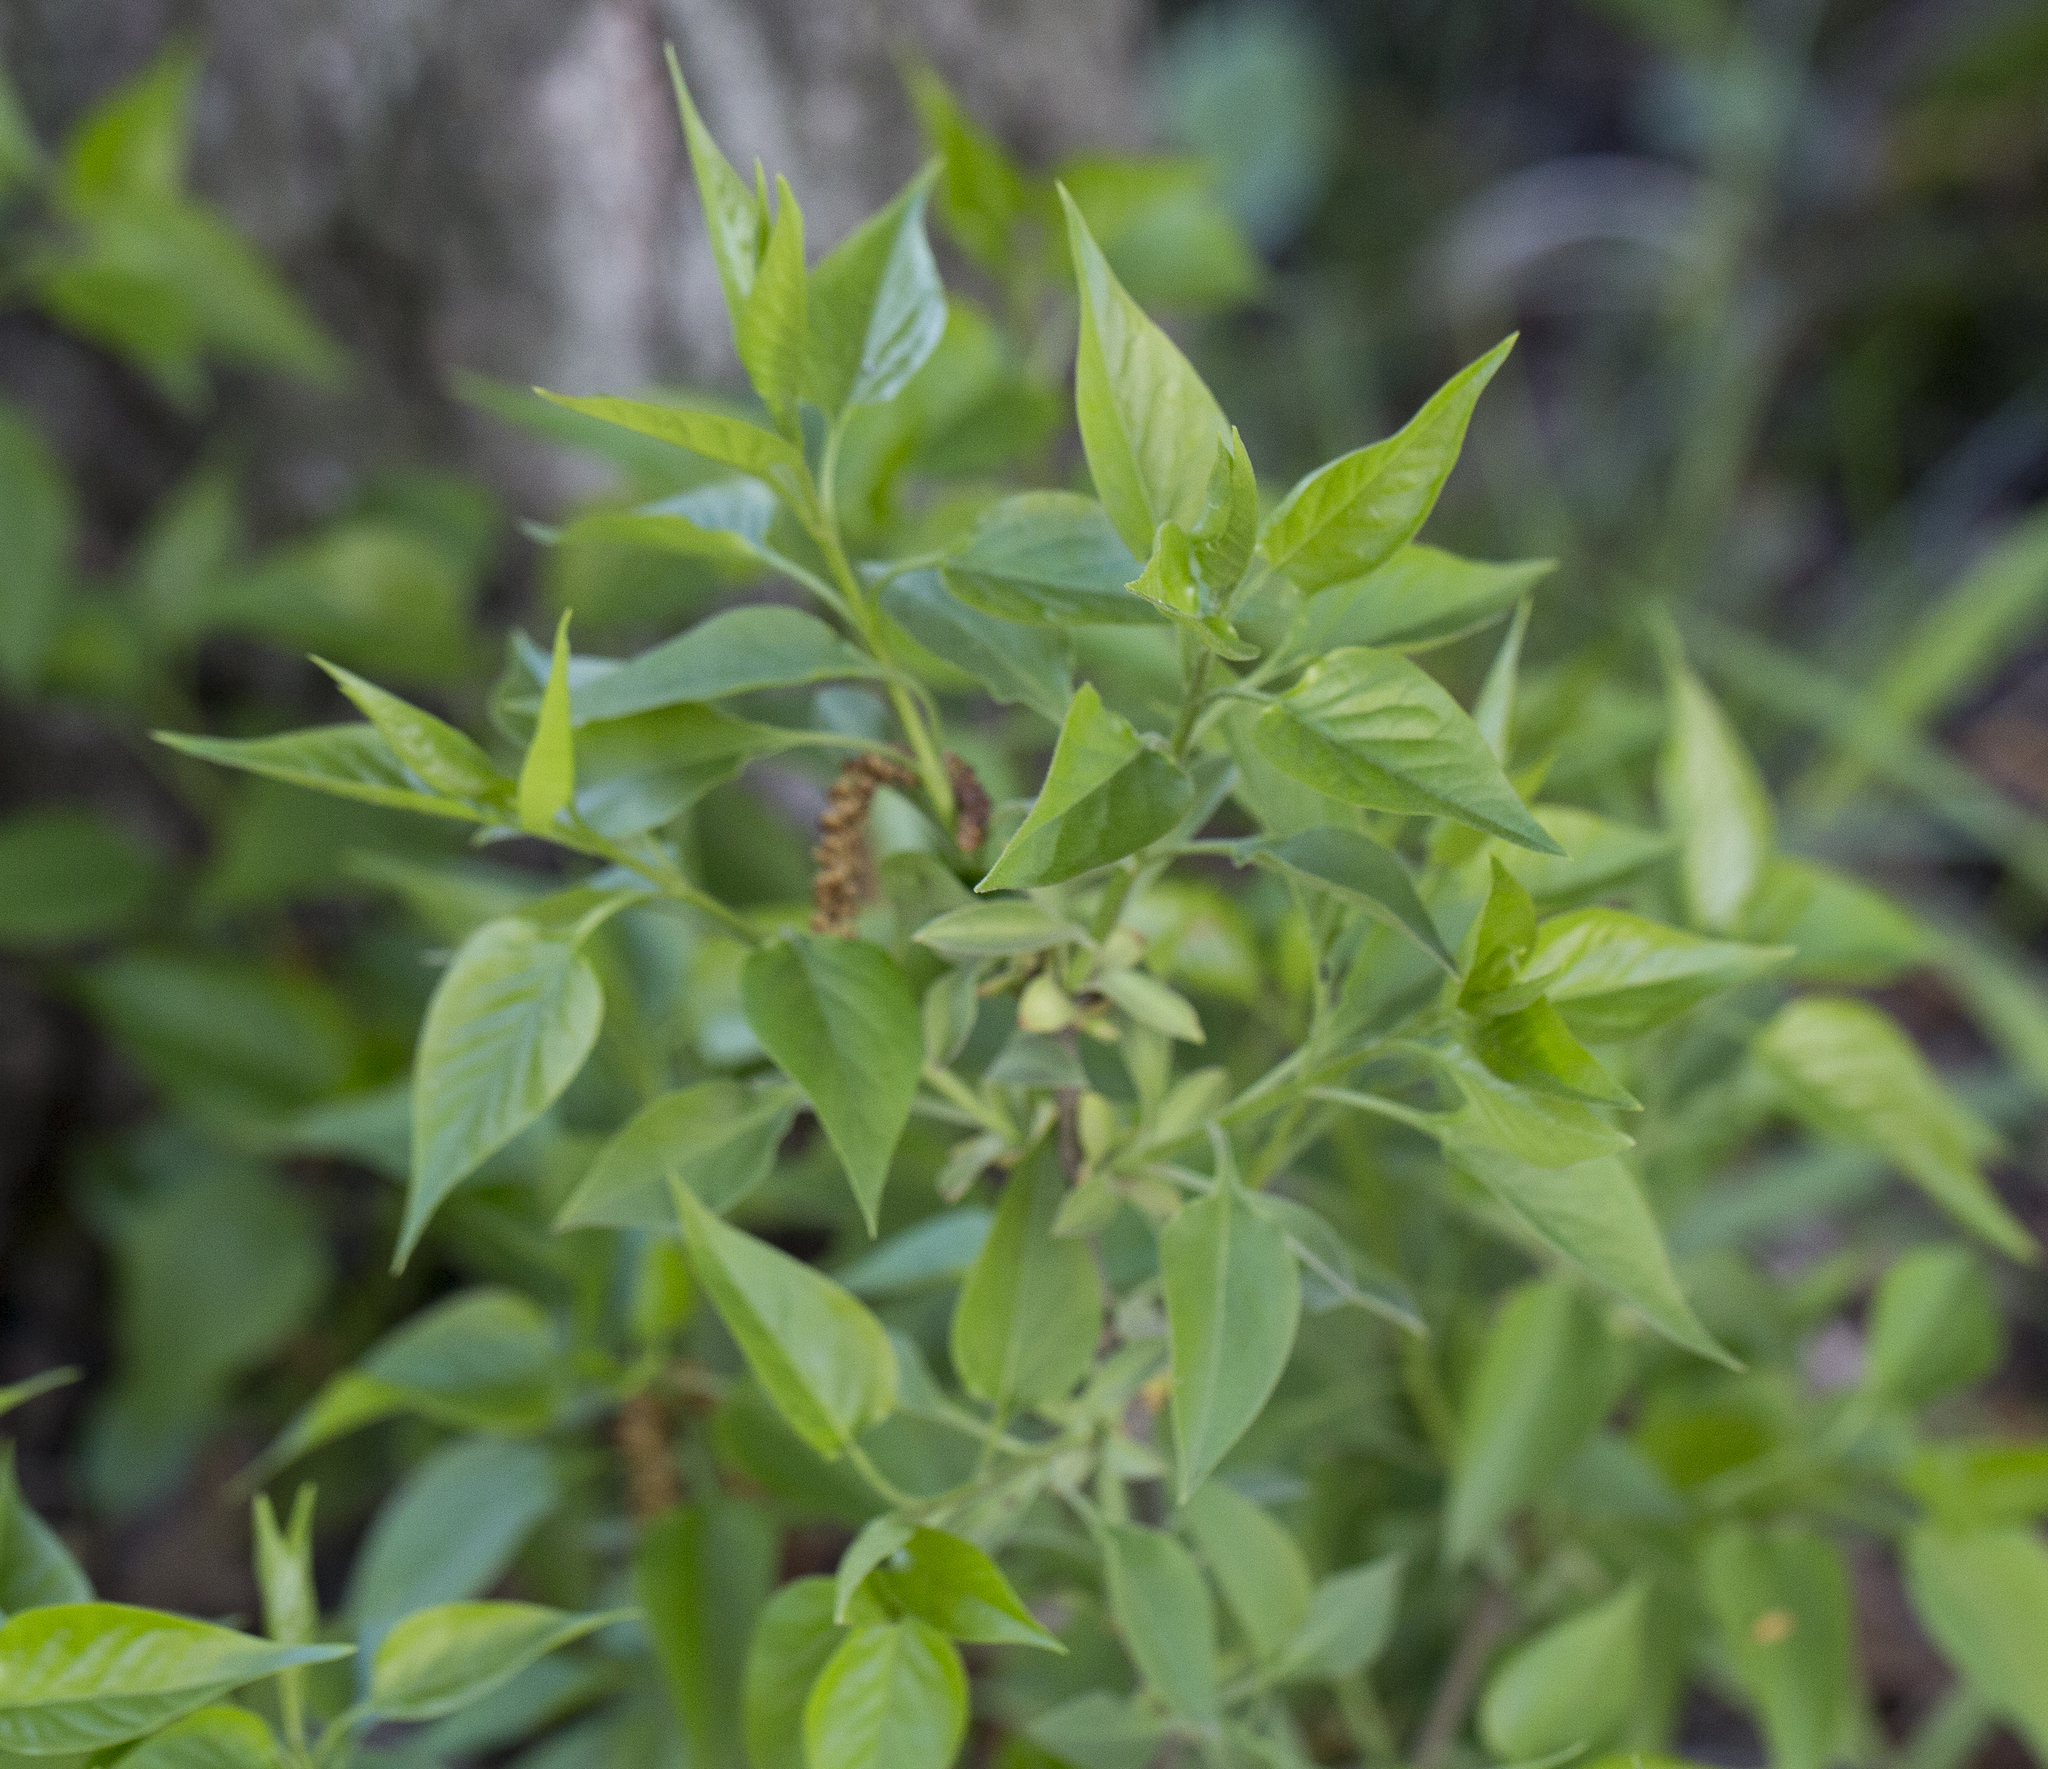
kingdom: Plantae
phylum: Tracheophyta
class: Magnoliopsida
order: Lamiales
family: Oleaceae
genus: Syringa
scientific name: Syringa vulgaris
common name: Common lilac
